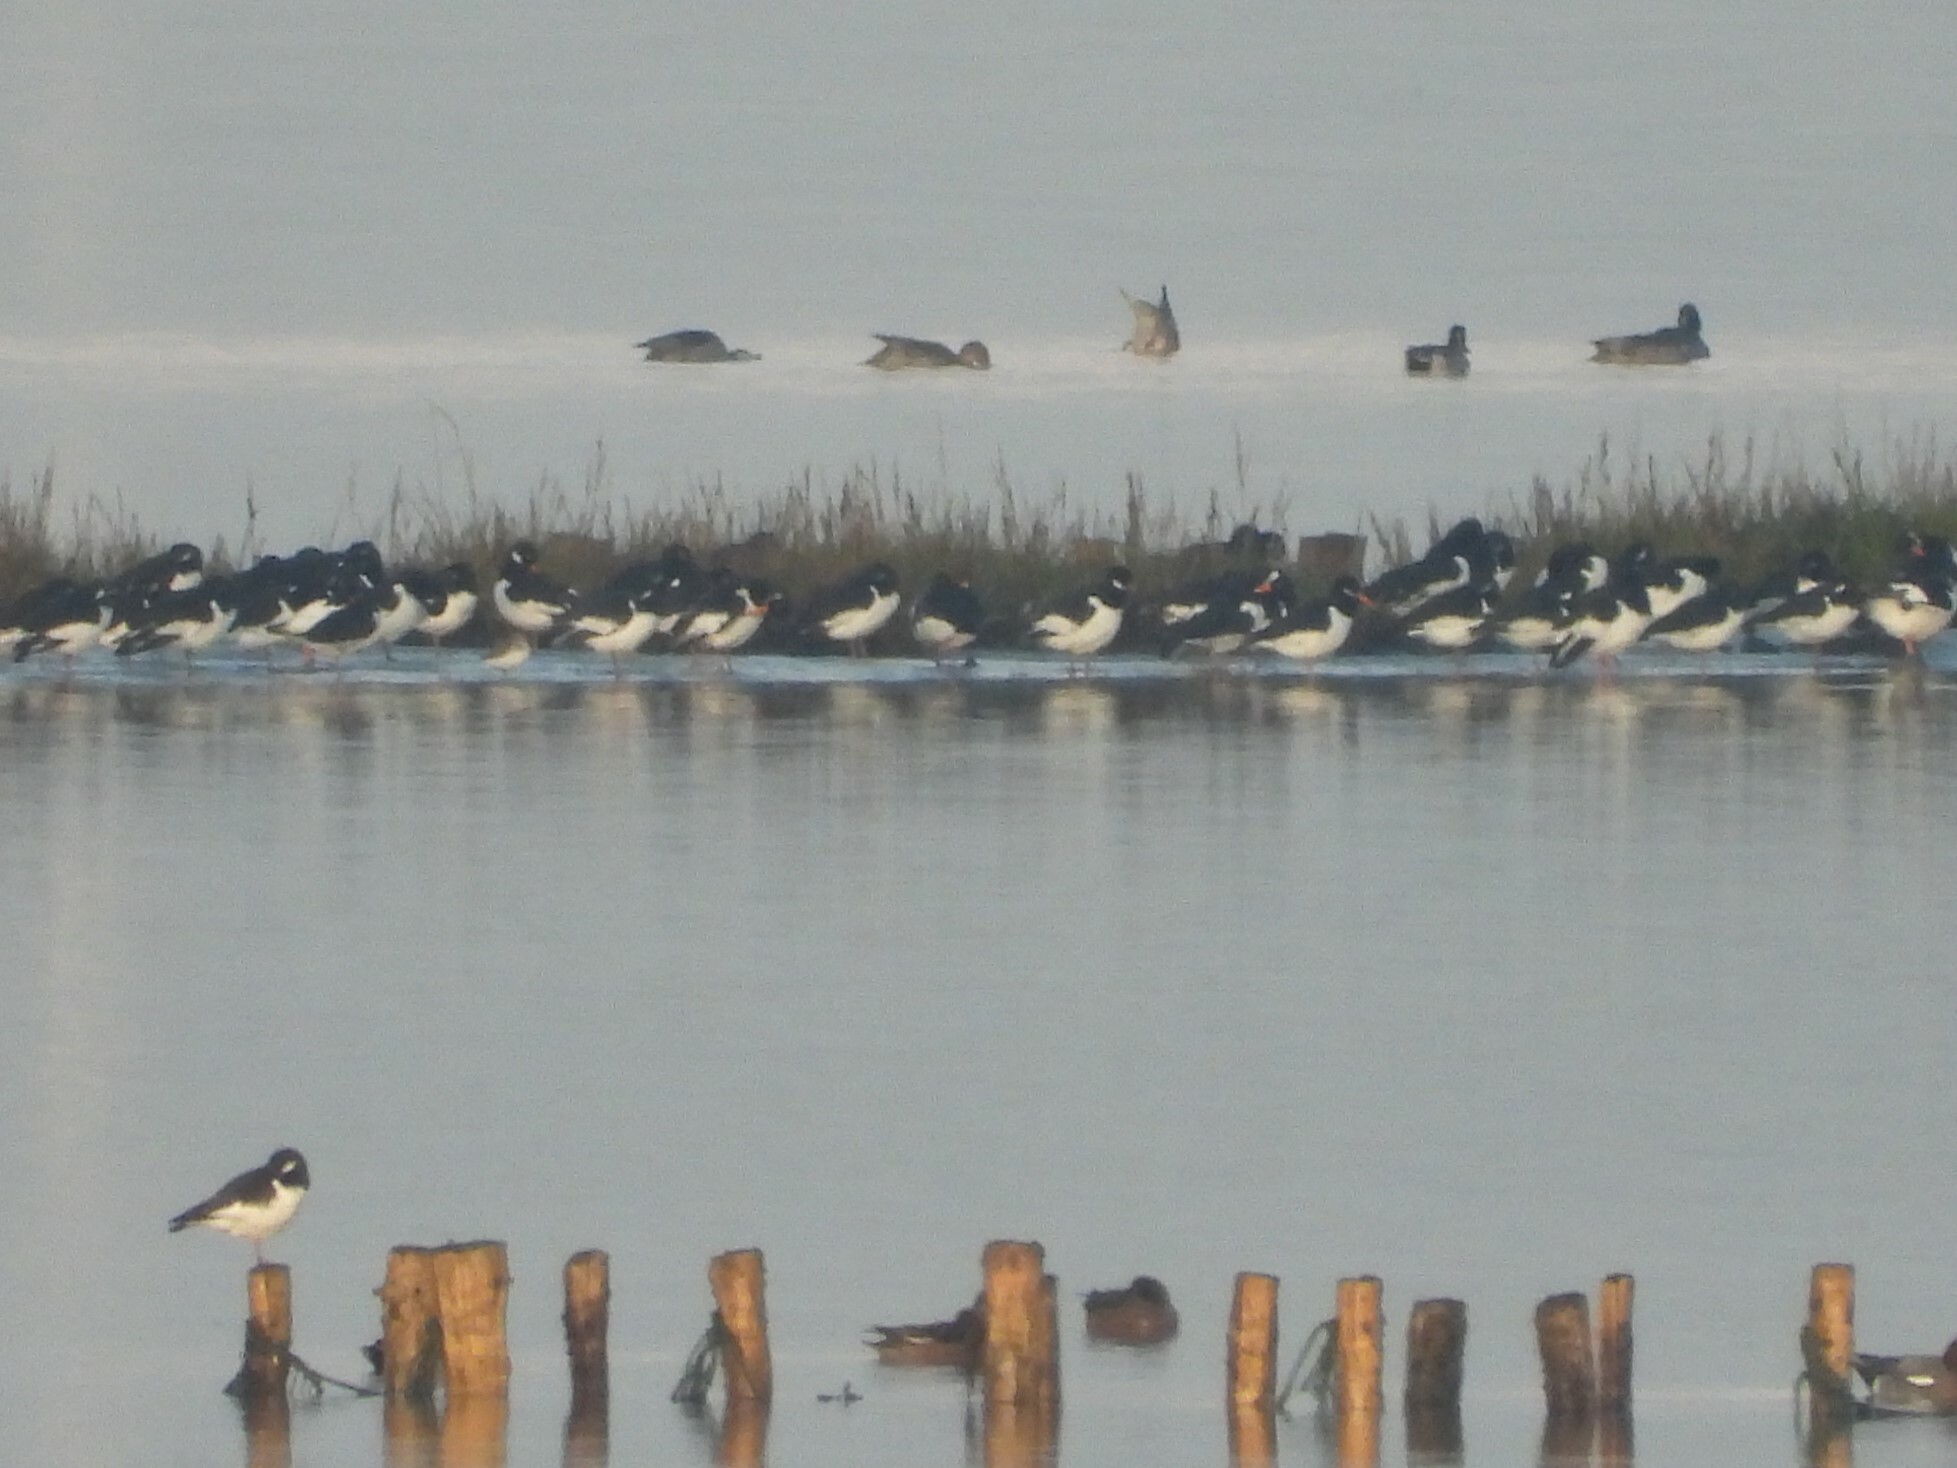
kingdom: Animalia
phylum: Chordata
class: Aves
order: Charadriiformes
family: Haematopodidae
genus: Haematopus
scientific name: Haematopus ostralegus
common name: Eurasian oystercatcher
